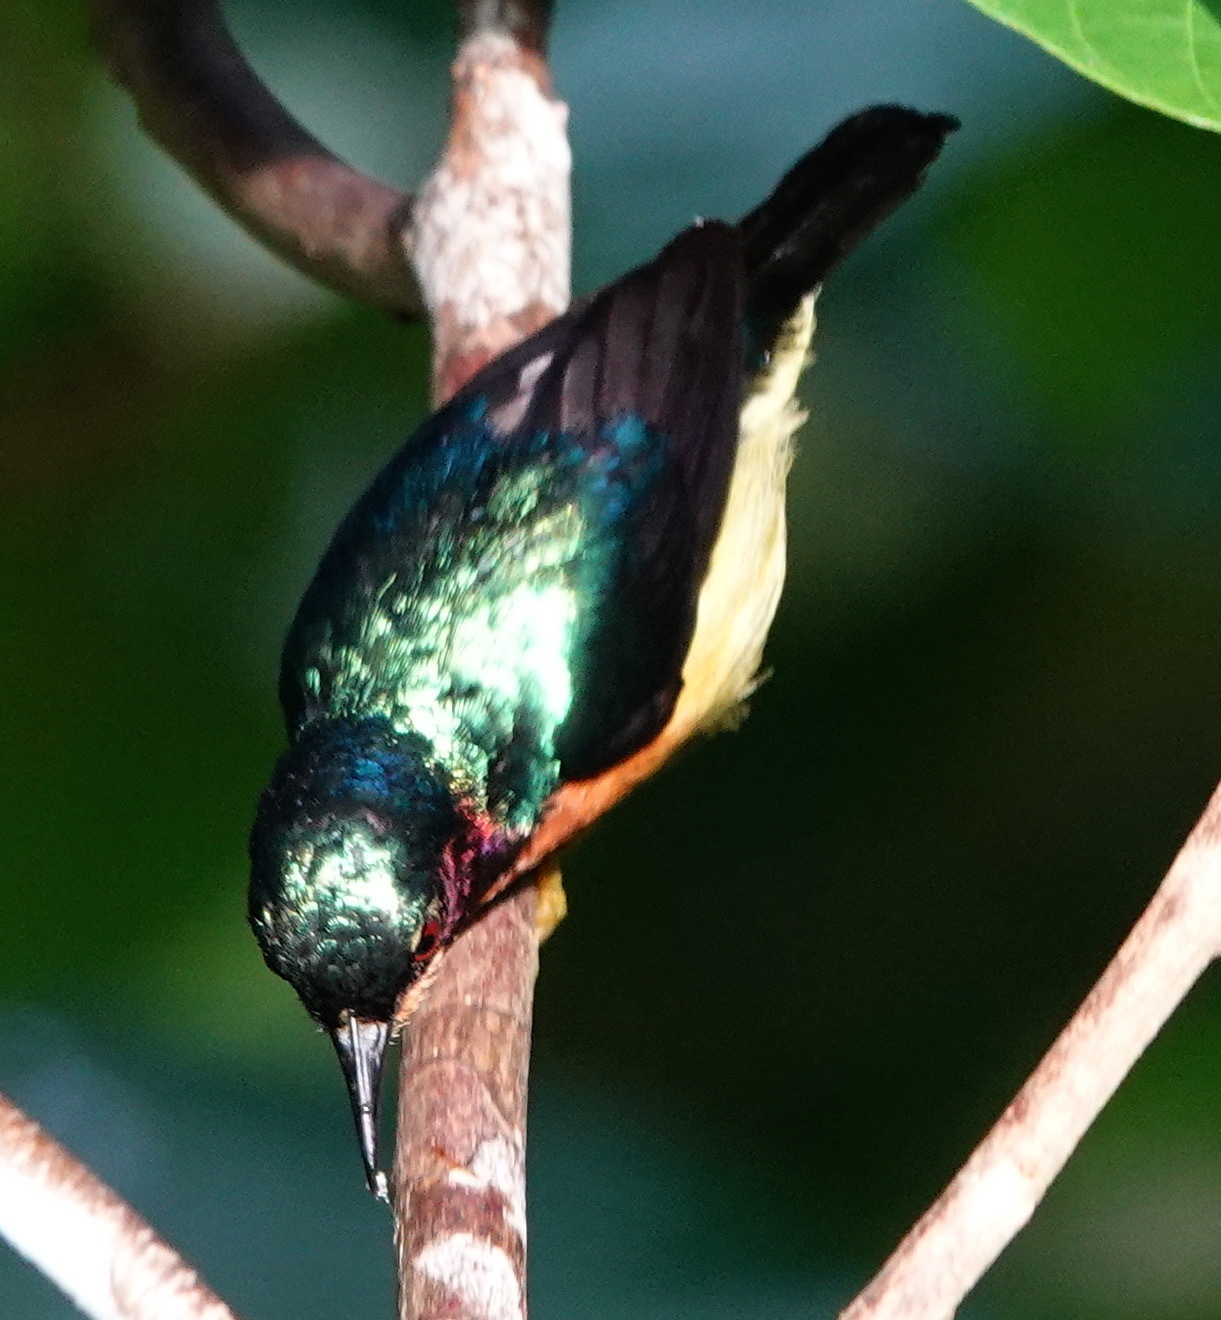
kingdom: Animalia
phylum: Chordata
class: Aves
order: Passeriformes
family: Nectariniidae
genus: Chalcoparia
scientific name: Chalcoparia singalensis
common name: Ruby-cheeked sunbird
